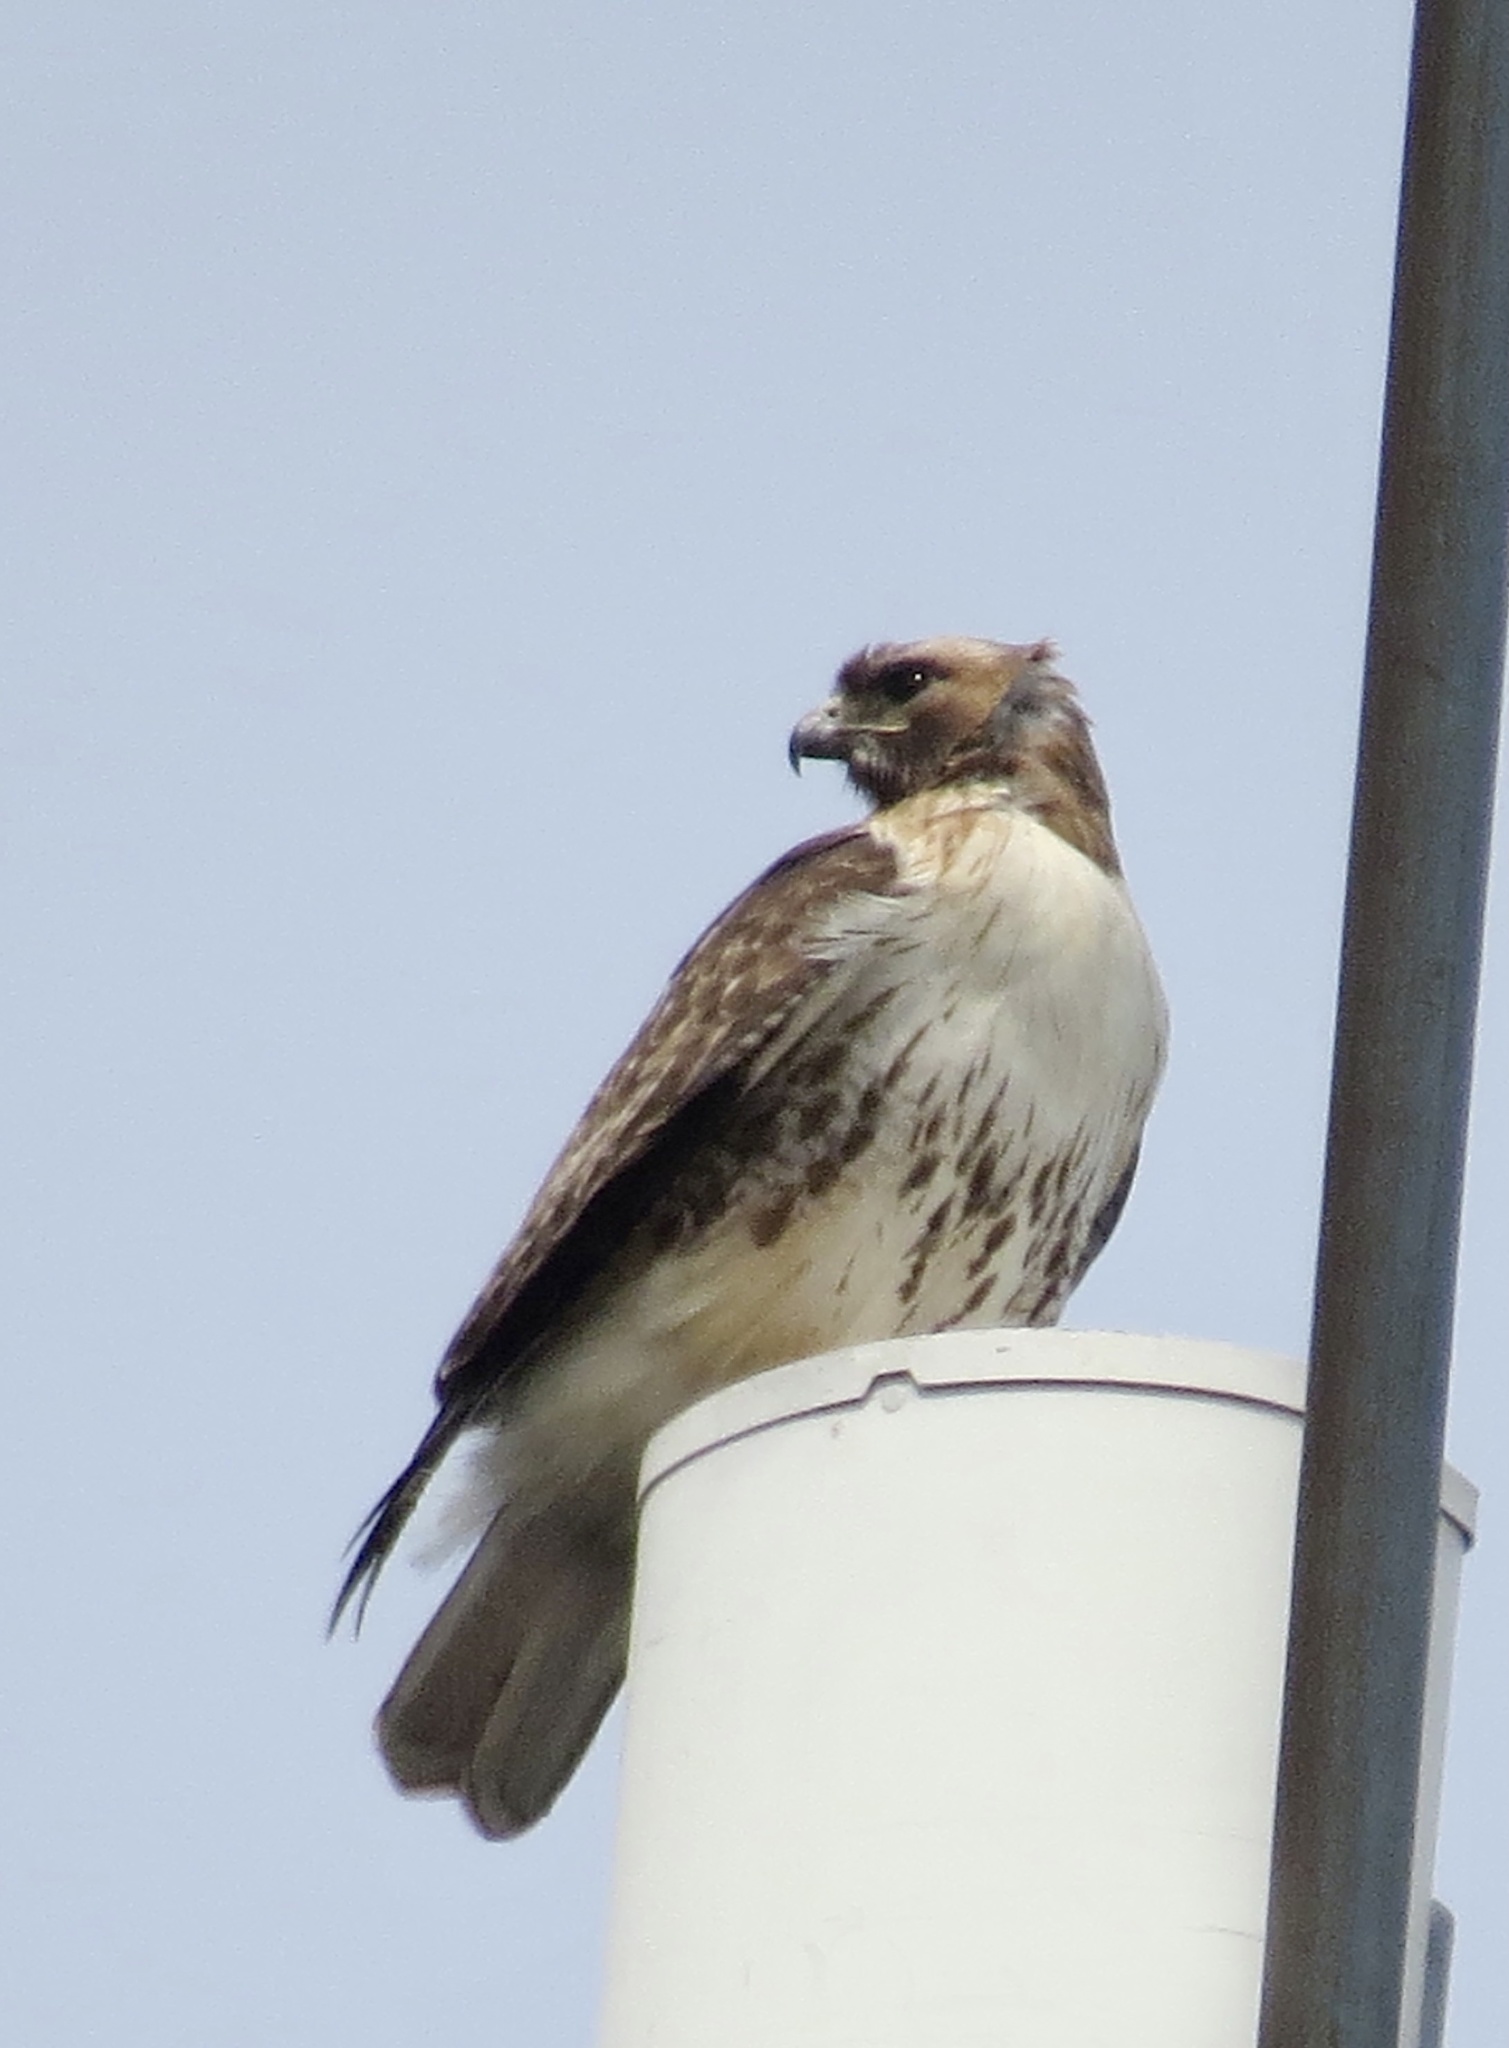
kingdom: Animalia
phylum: Chordata
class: Aves
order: Accipitriformes
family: Accipitridae
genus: Buteo
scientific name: Buteo jamaicensis
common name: Red-tailed hawk
